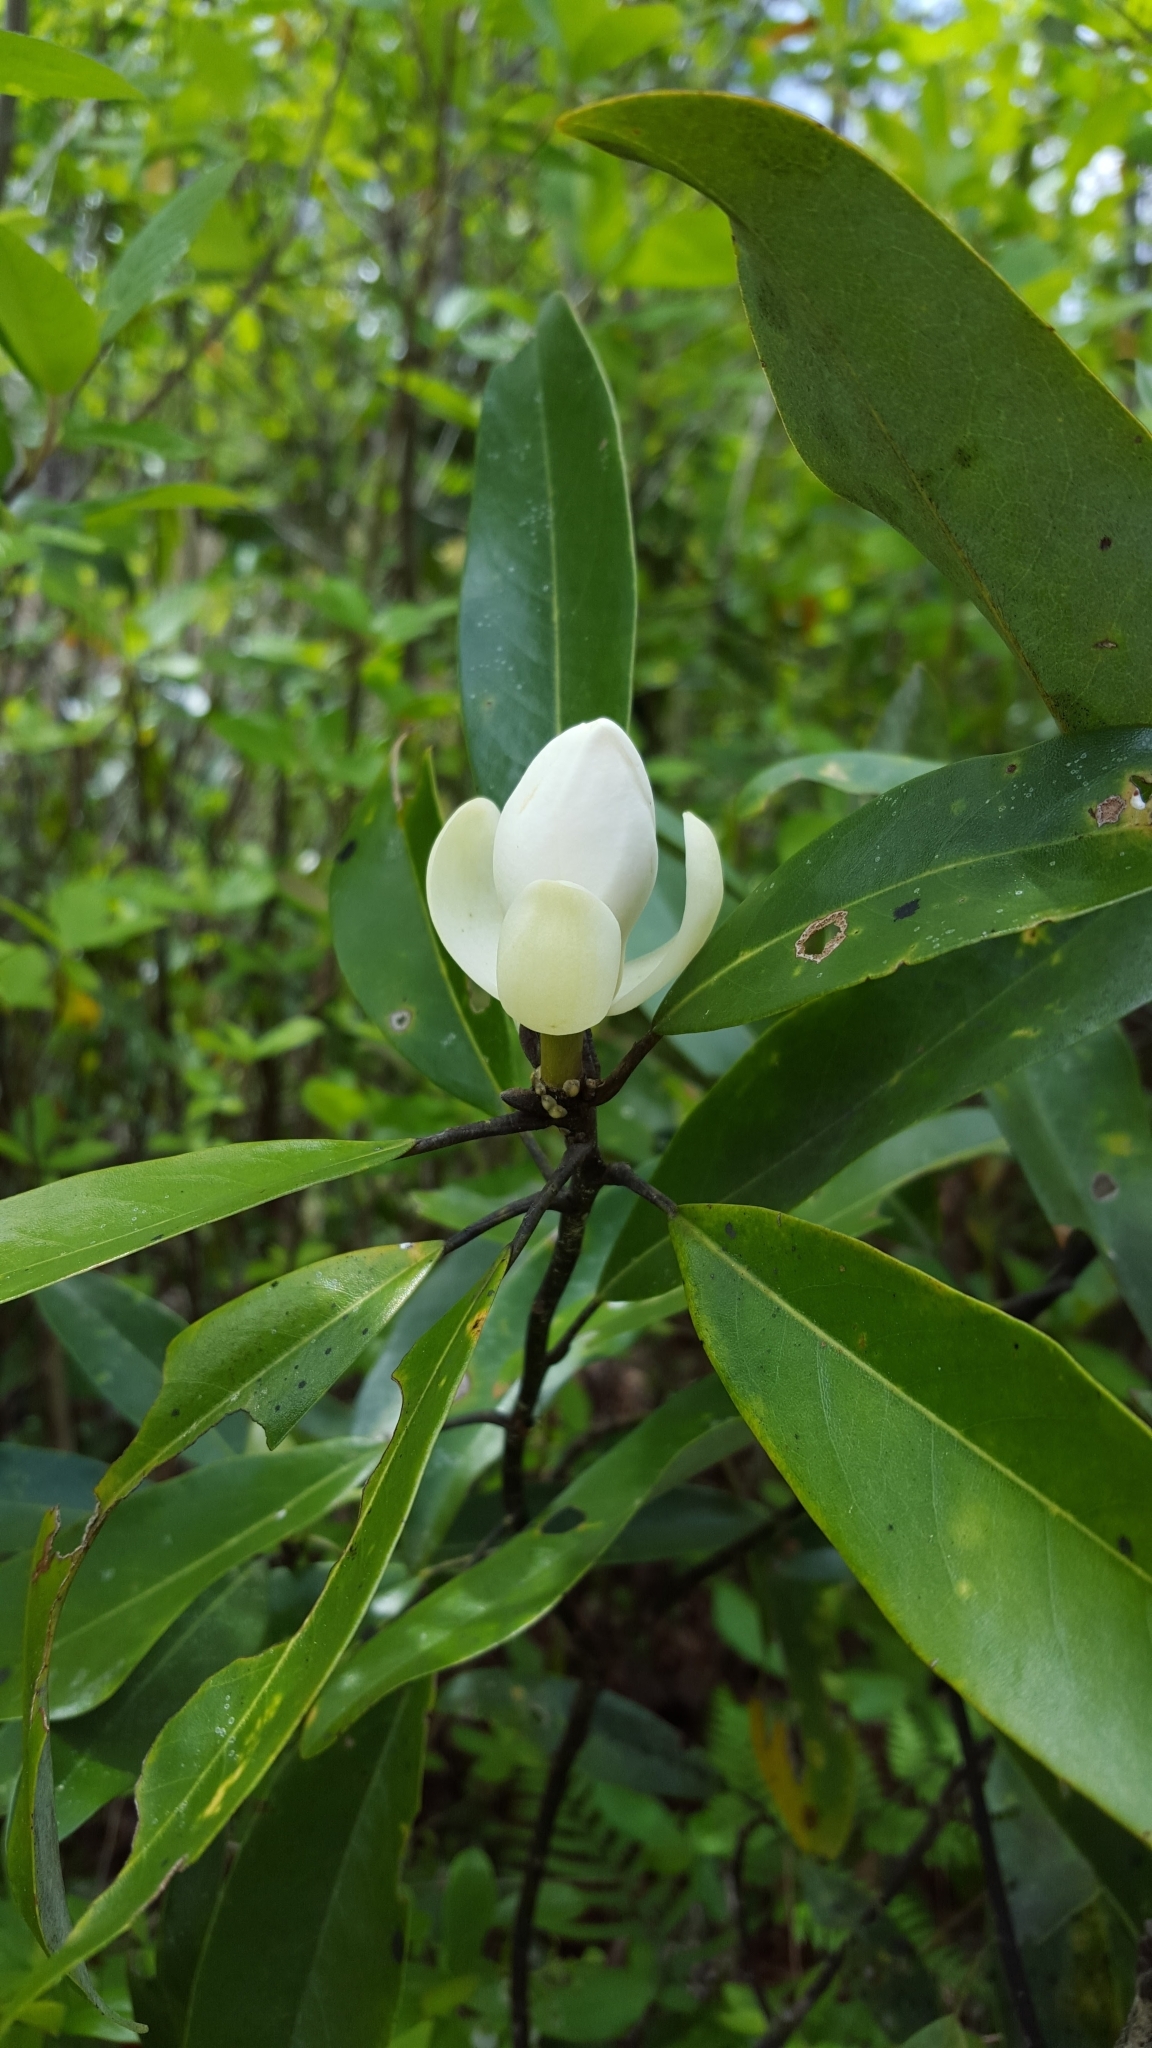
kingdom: Plantae
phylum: Tracheophyta
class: Magnoliopsida
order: Magnoliales
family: Magnoliaceae
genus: Magnolia
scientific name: Magnolia virginiana
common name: Swamp bay
